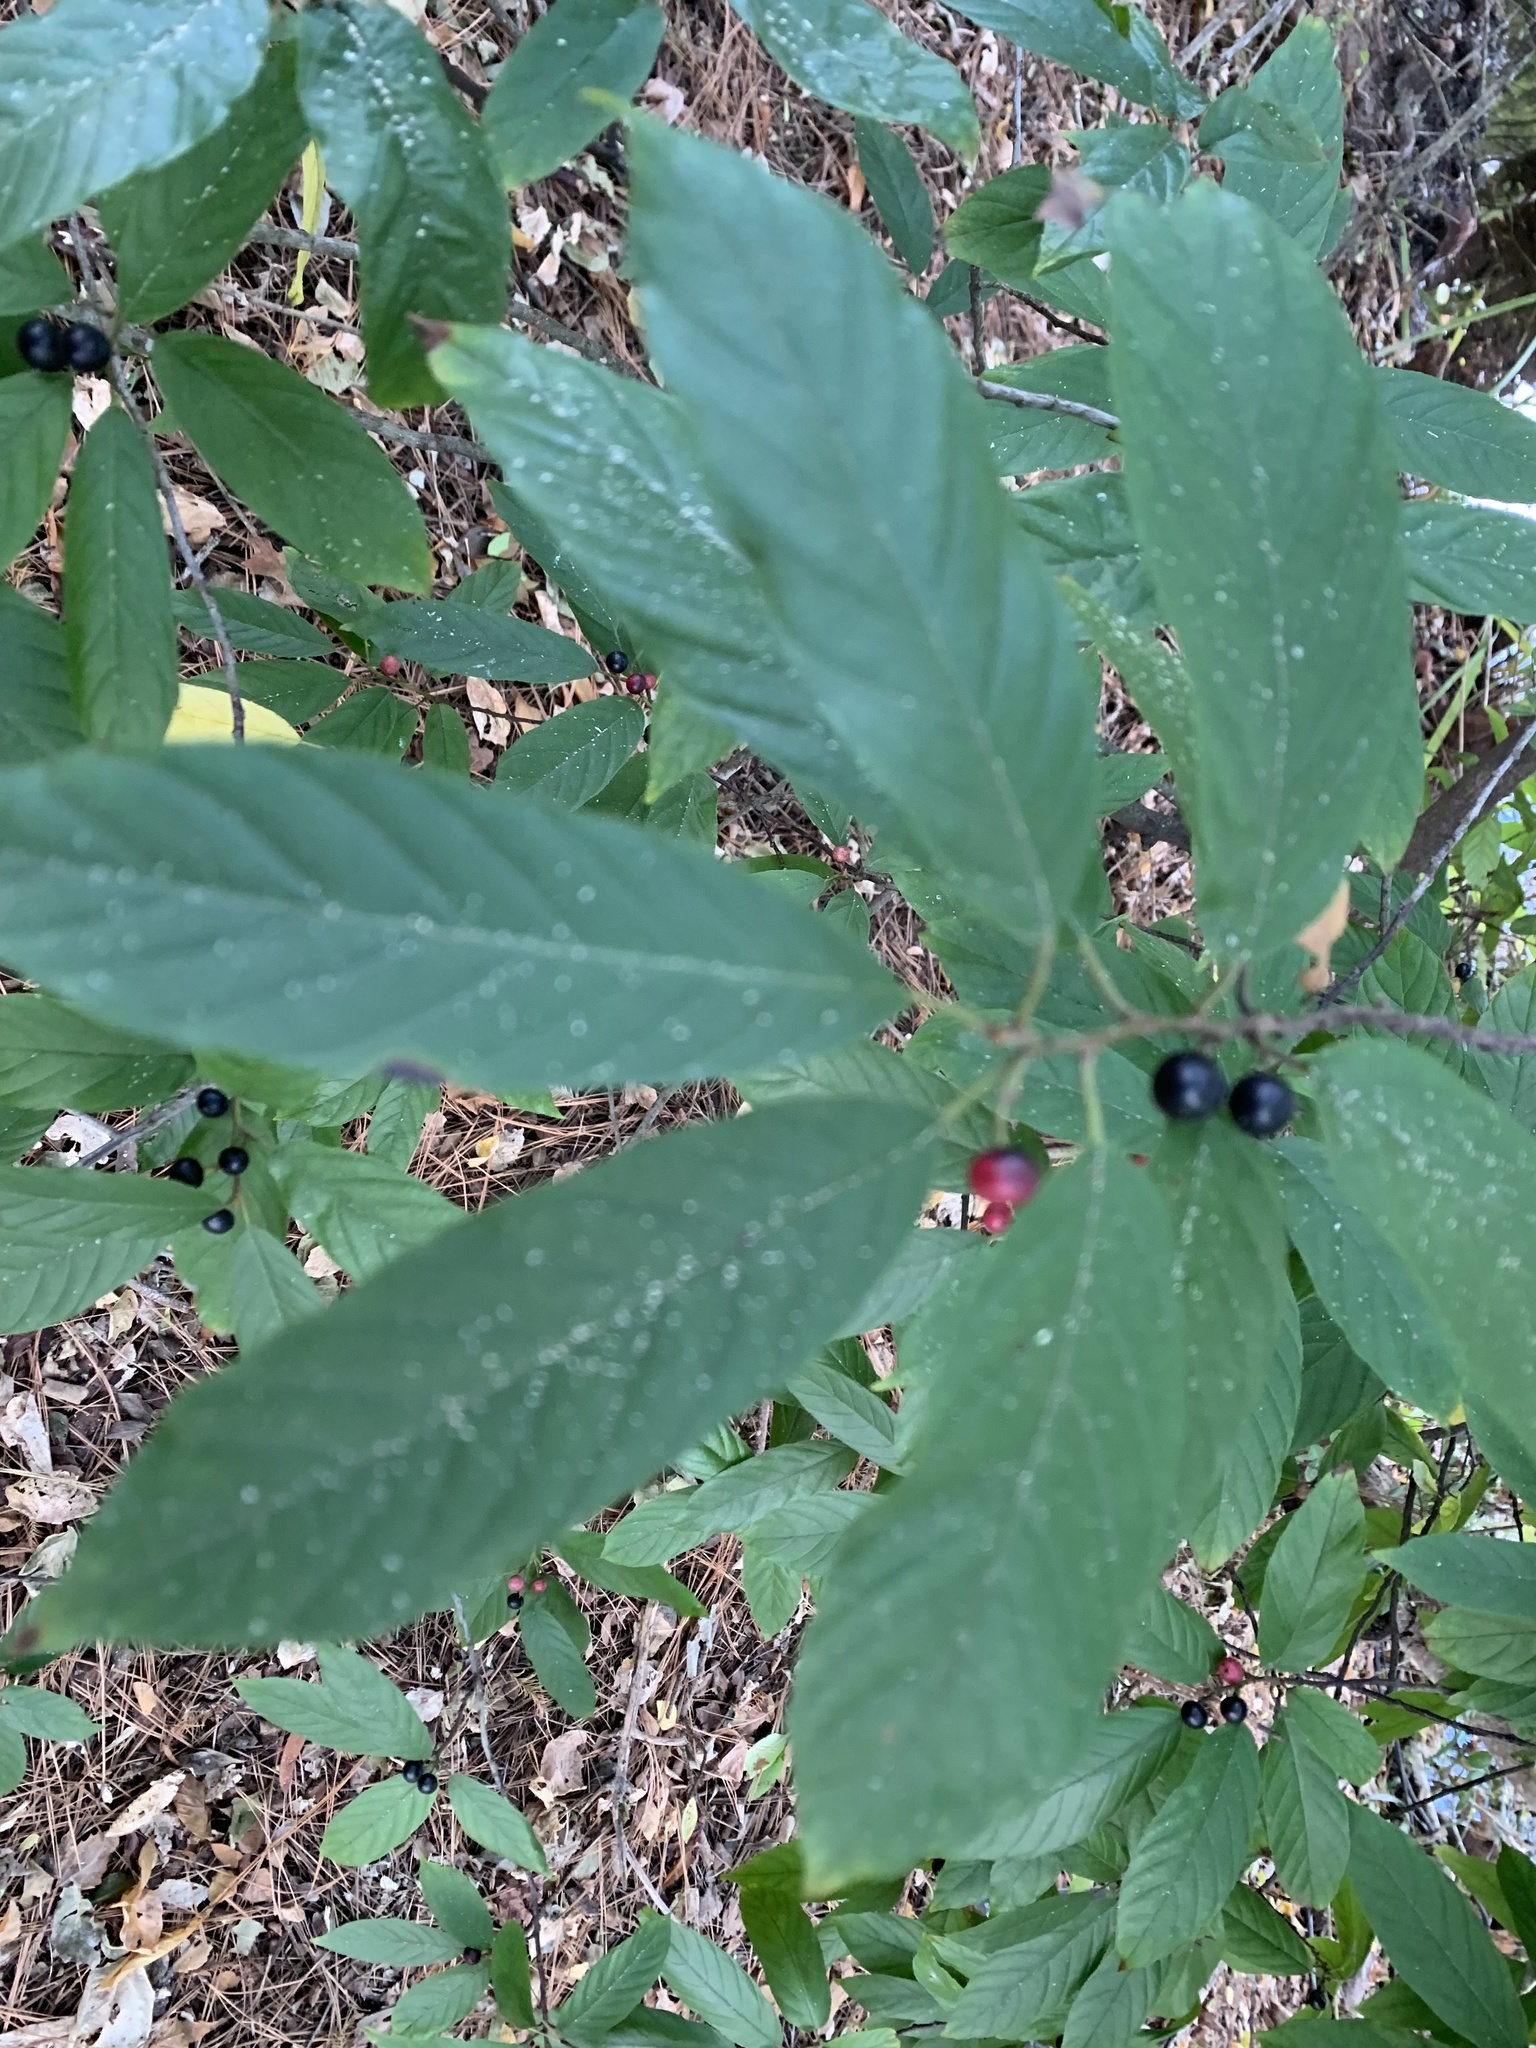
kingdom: Plantae
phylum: Tracheophyta
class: Magnoliopsida
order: Rosales
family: Rhamnaceae
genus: Frangula
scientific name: Frangula caroliniana
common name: Carolina buckthorn
